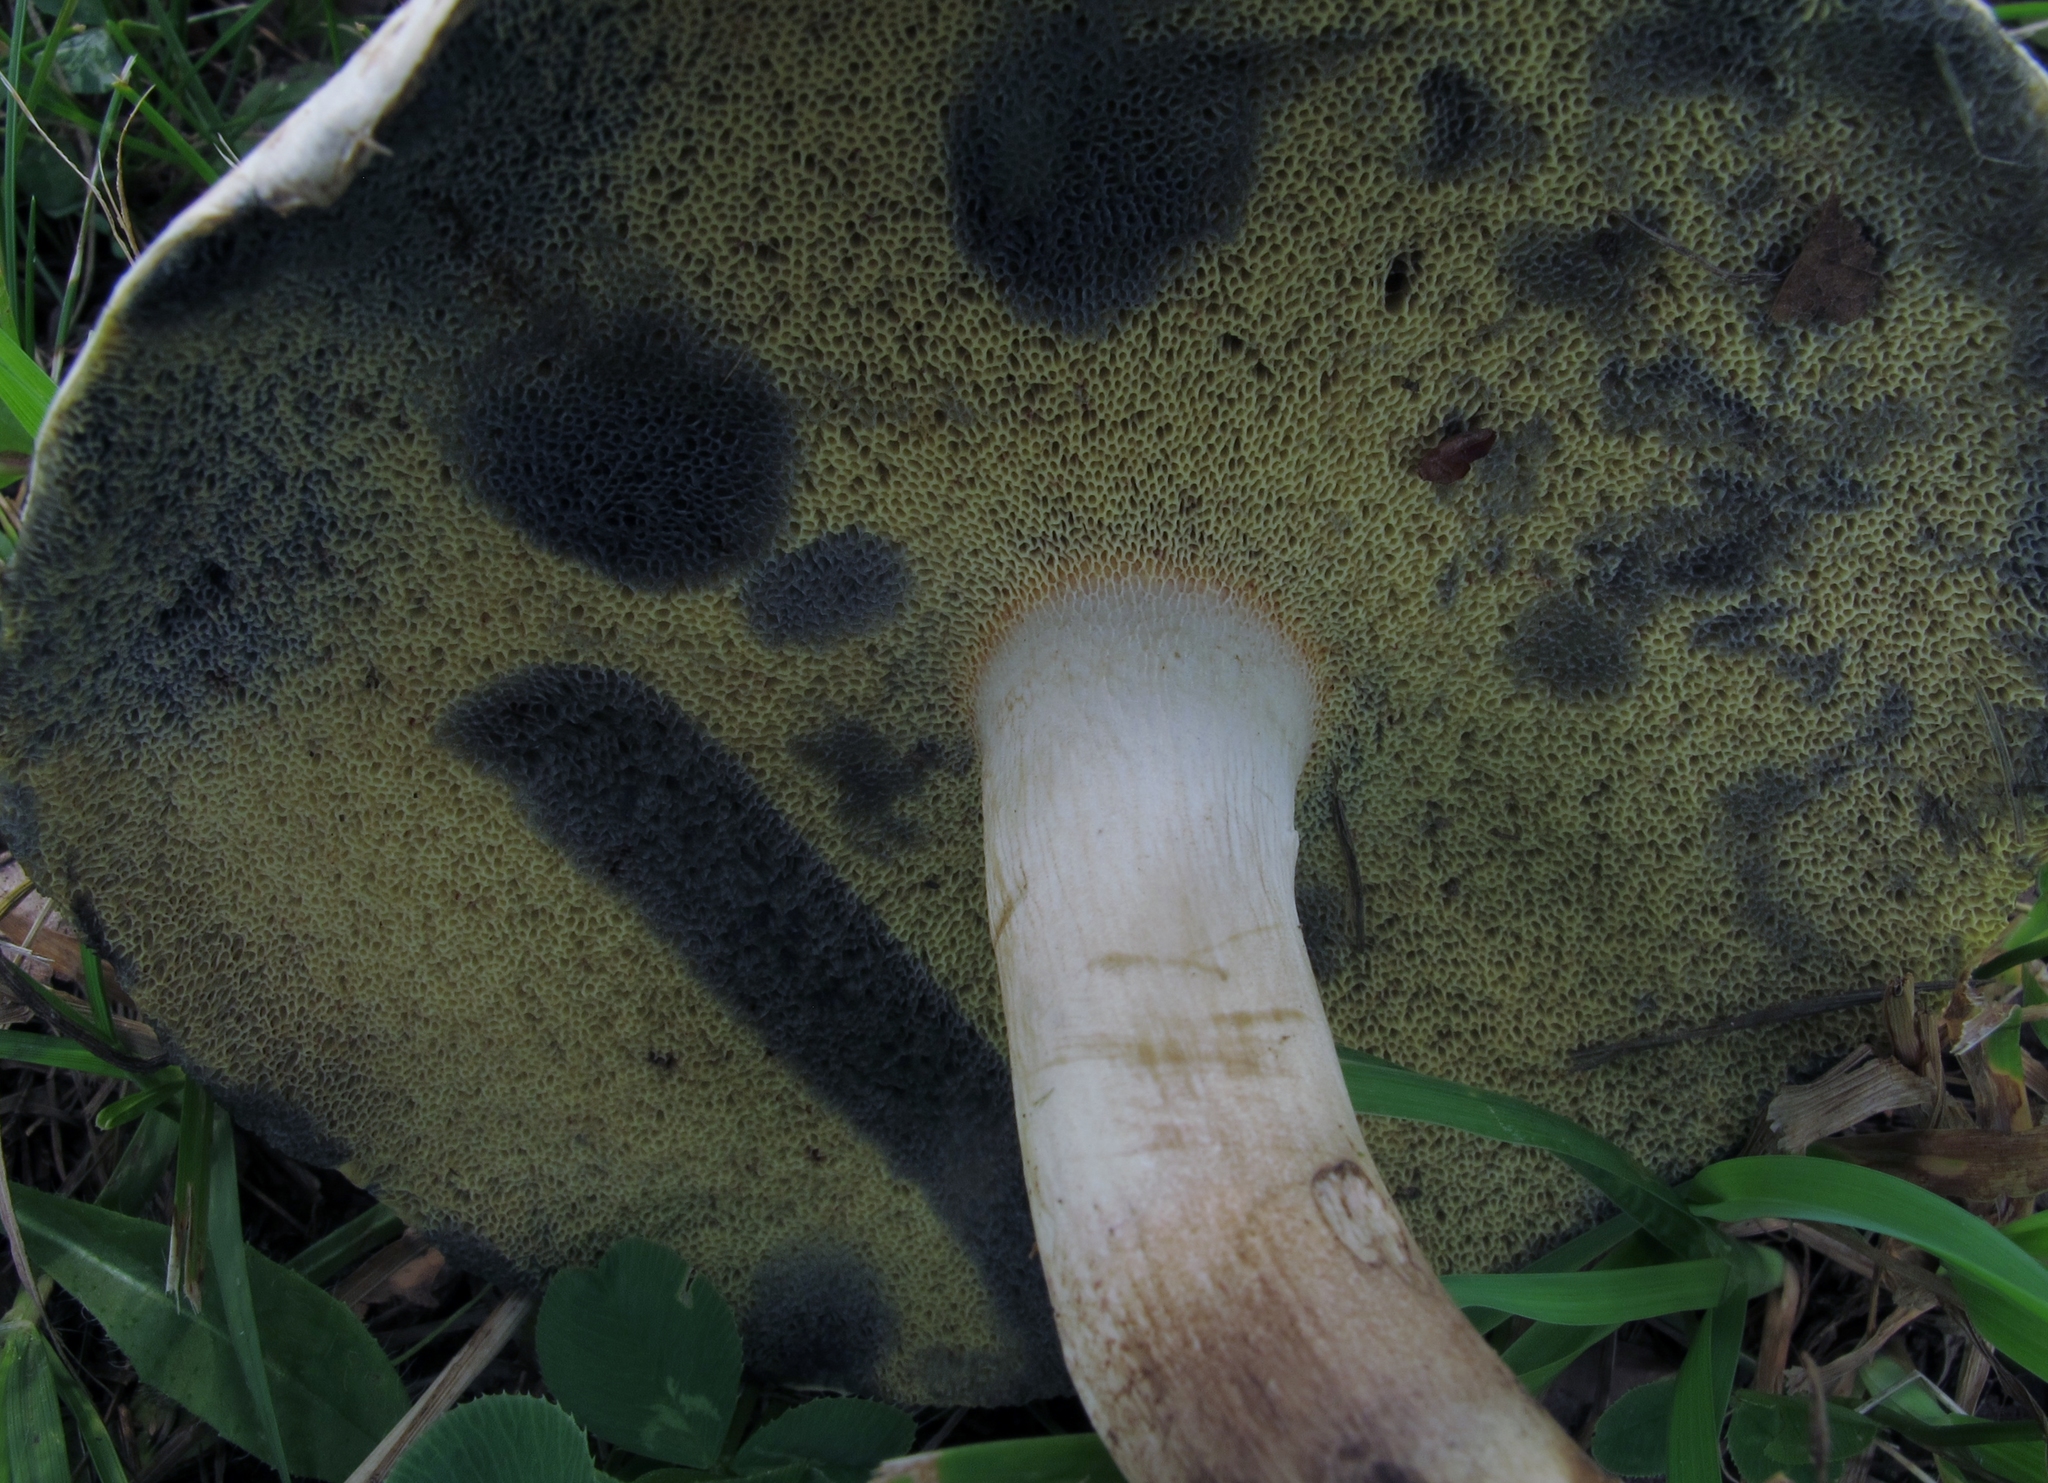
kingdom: Fungi
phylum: Basidiomycota
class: Agaricomycetes
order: Boletales
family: Boletaceae
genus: Imleria
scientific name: Imleria pallida
